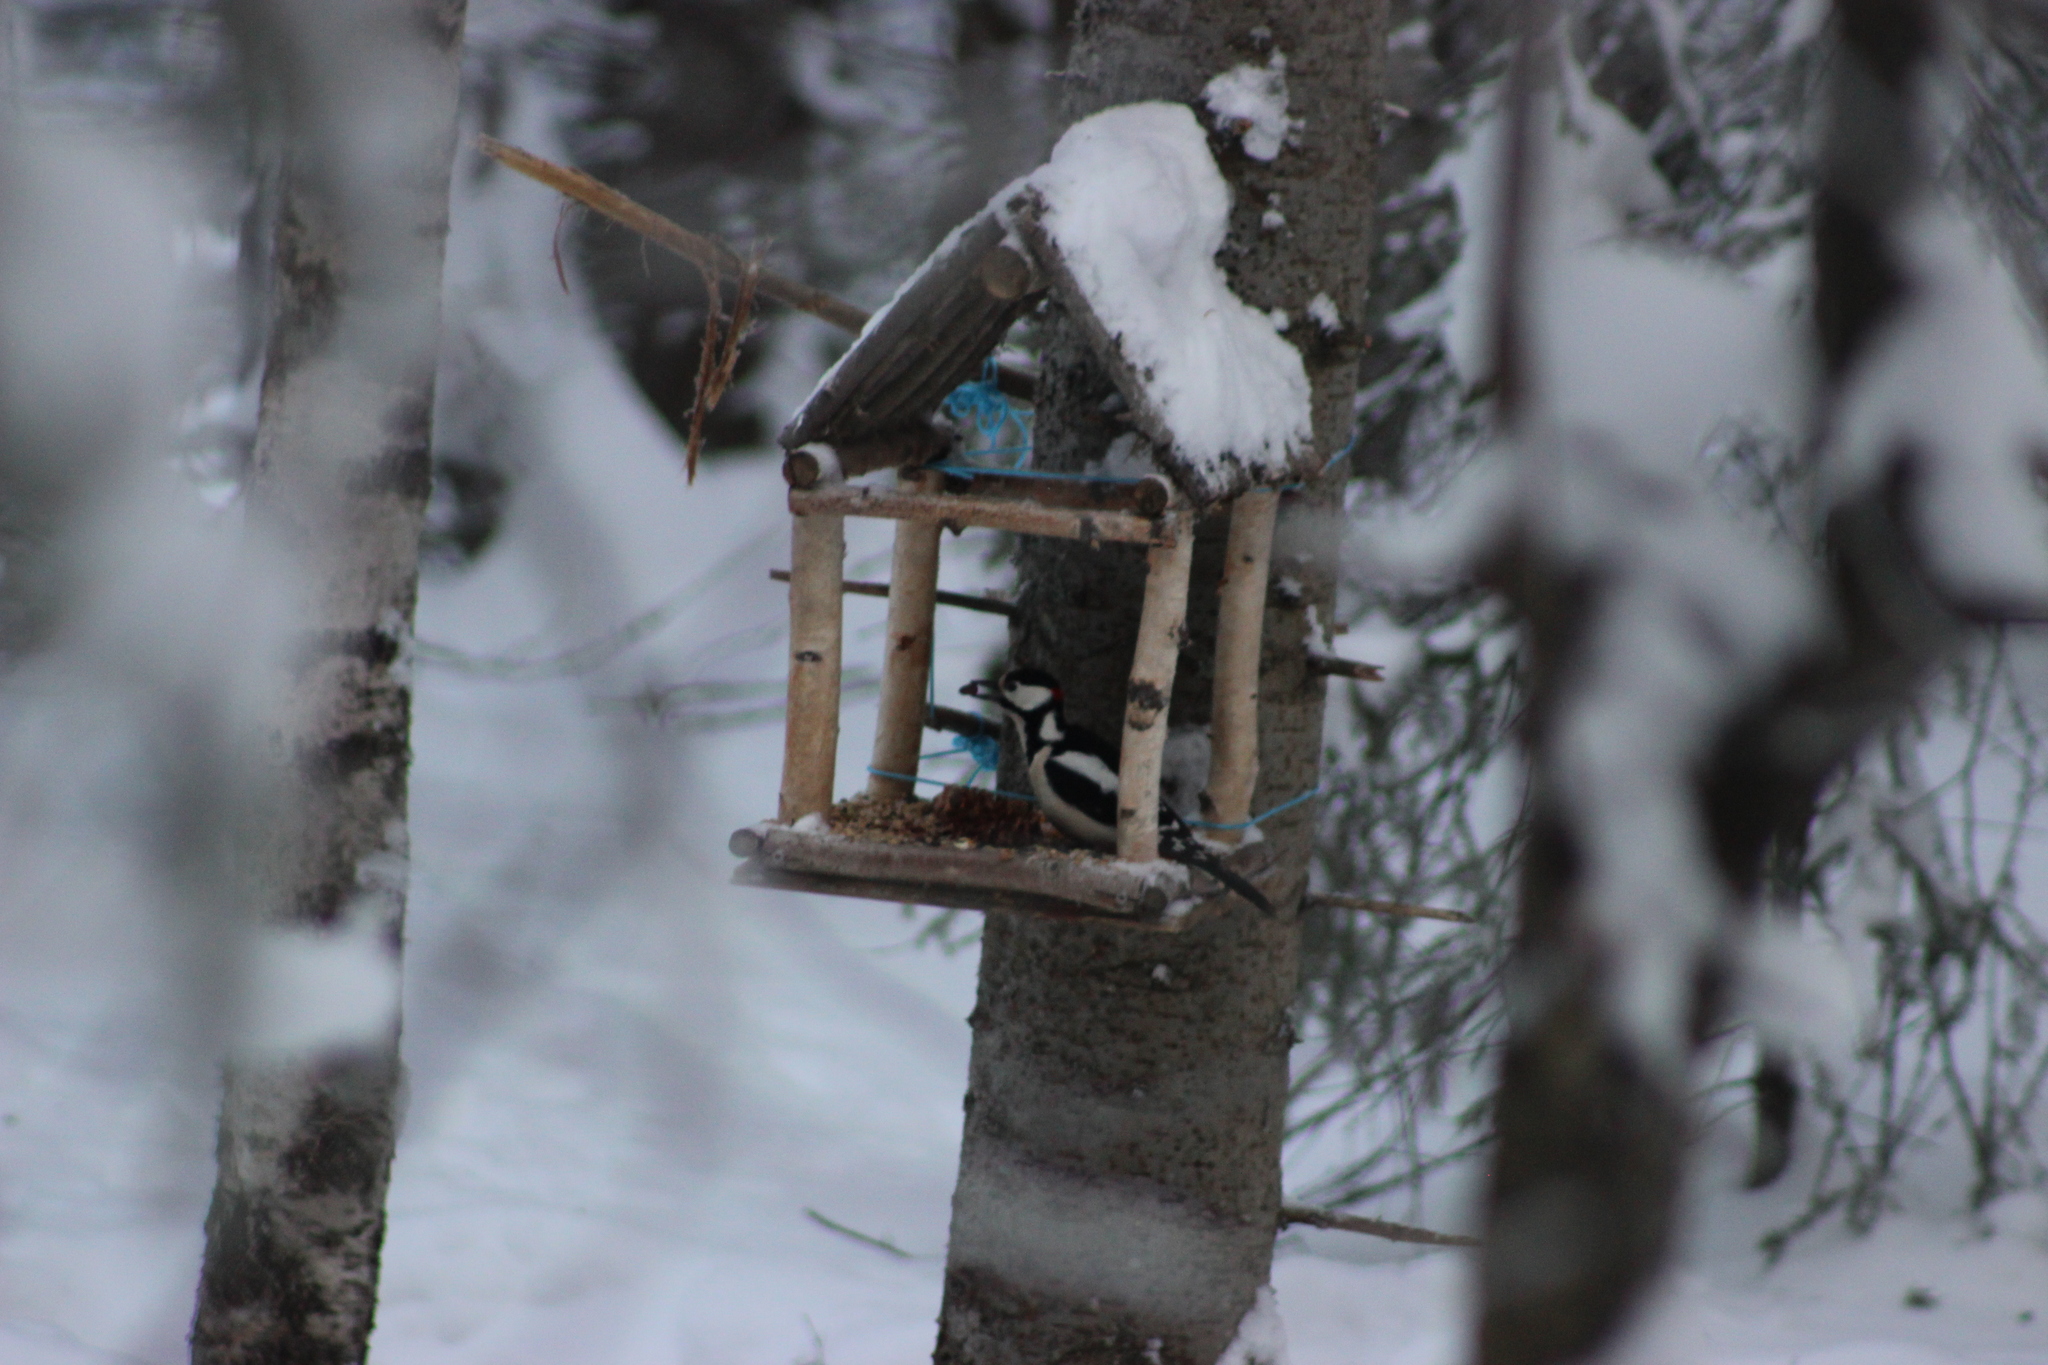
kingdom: Animalia
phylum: Chordata
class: Aves
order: Piciformes
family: Picidae
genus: Dendrocopos
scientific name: Dendrocopos major
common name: Great spotted woodpecker
